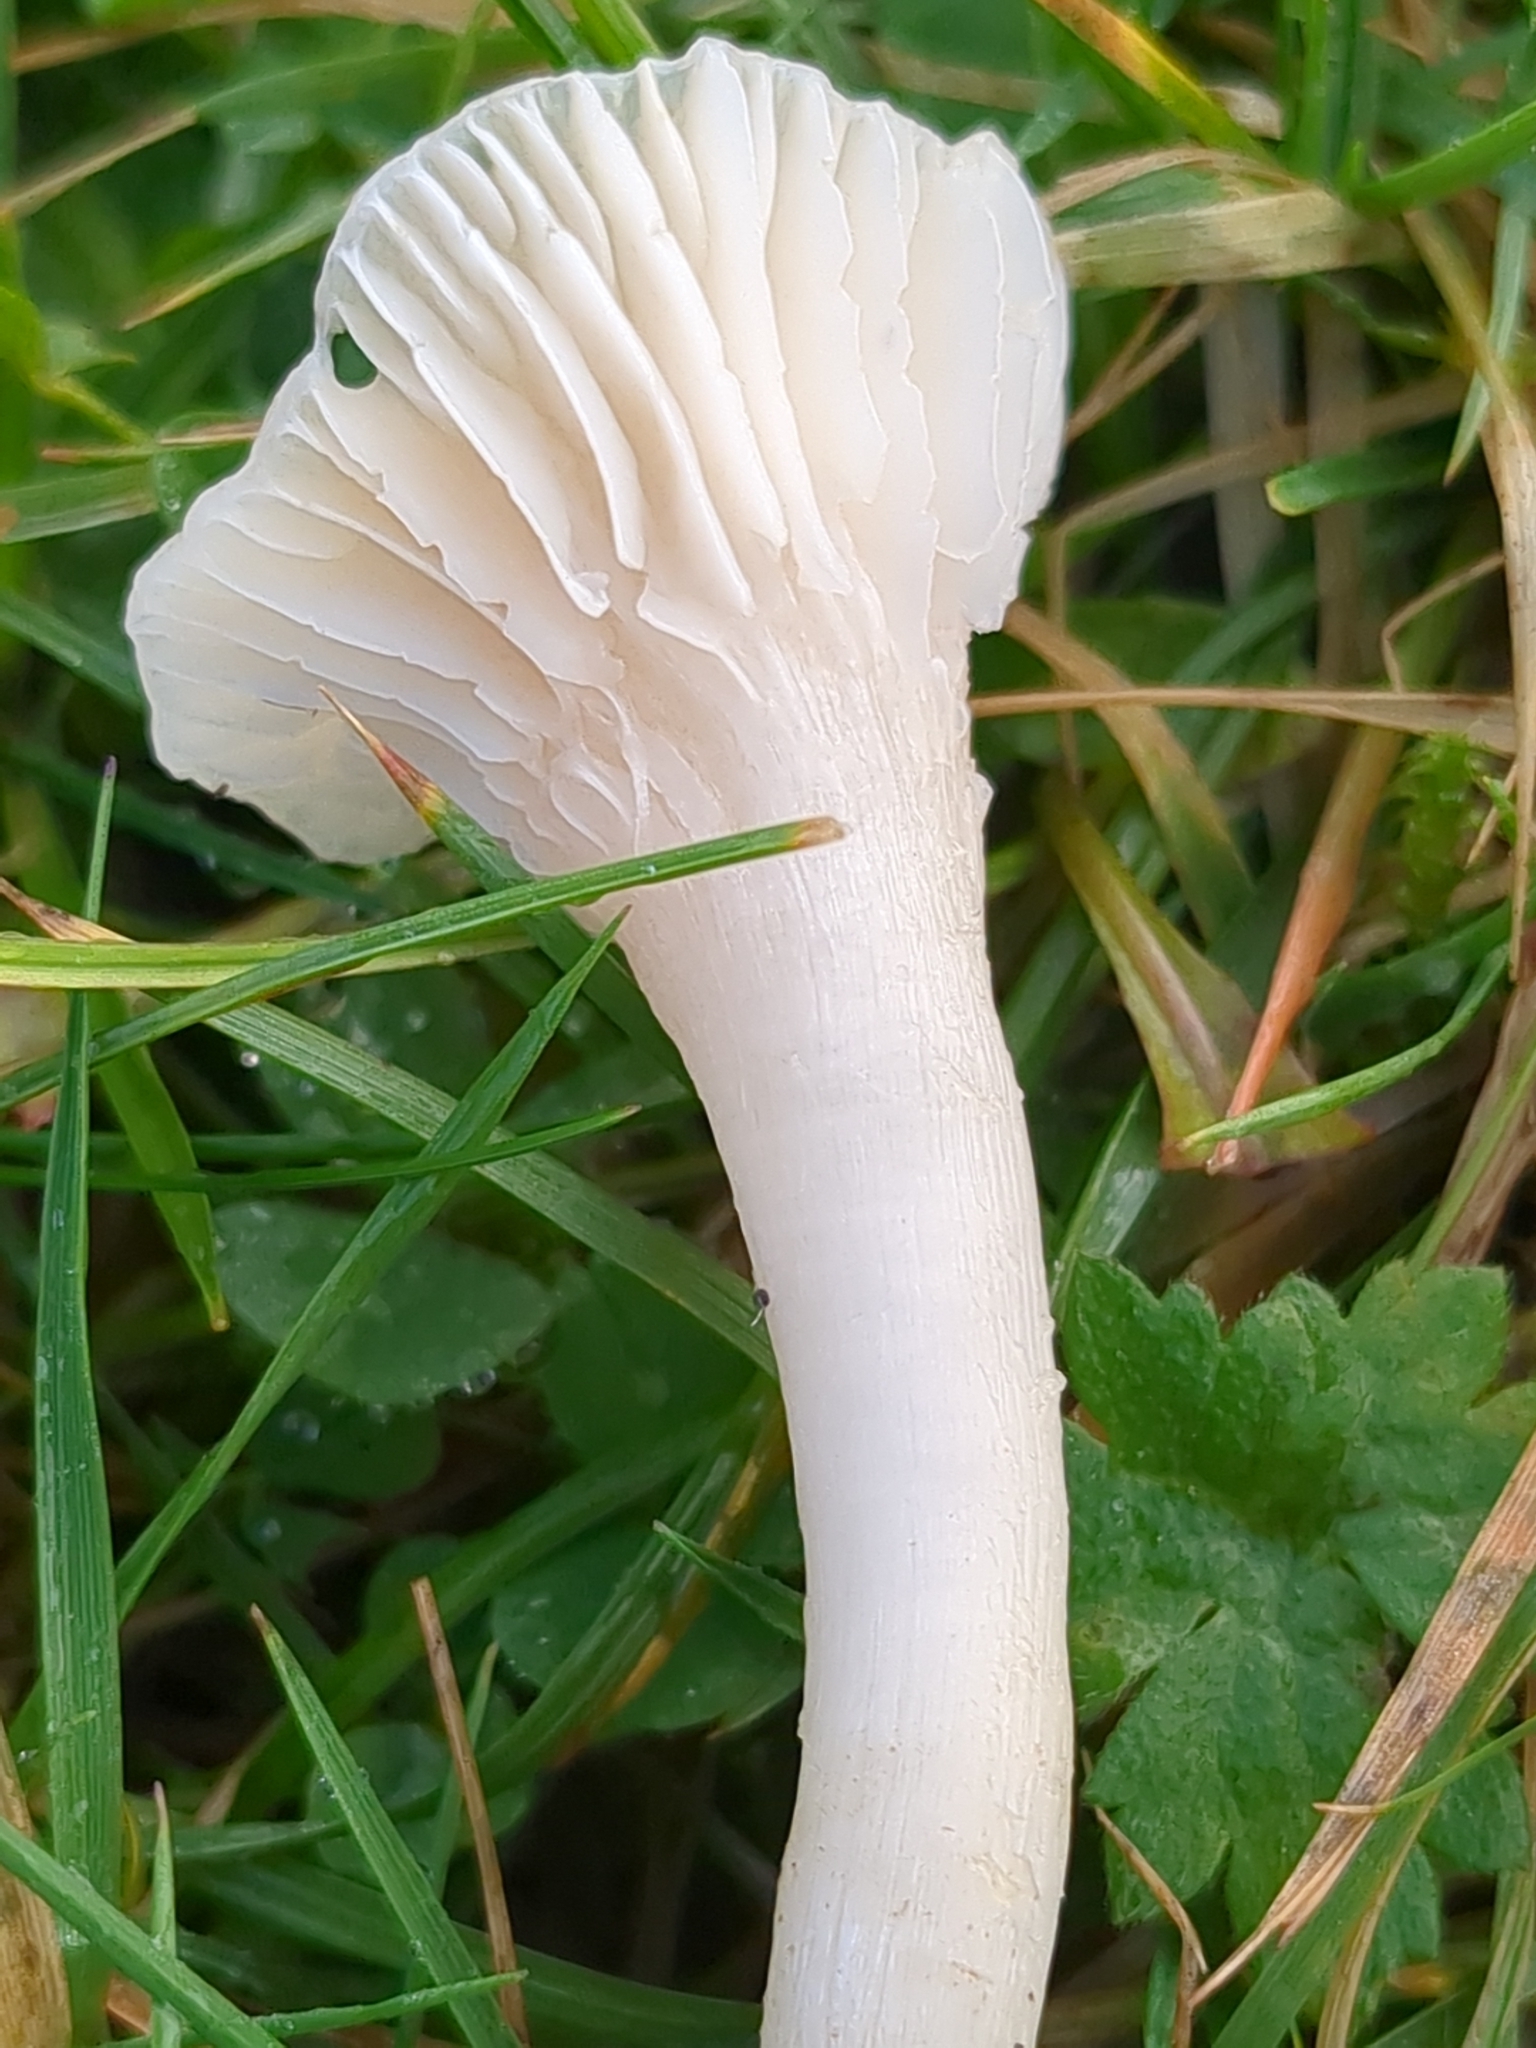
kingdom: Fungi
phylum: Basidiomycota
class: Agaricomycetes
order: Agaricales
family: Hygrophoraceae
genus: Cuphophyllus
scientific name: Cuphophyllus virgineus
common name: Snowy waxcap
